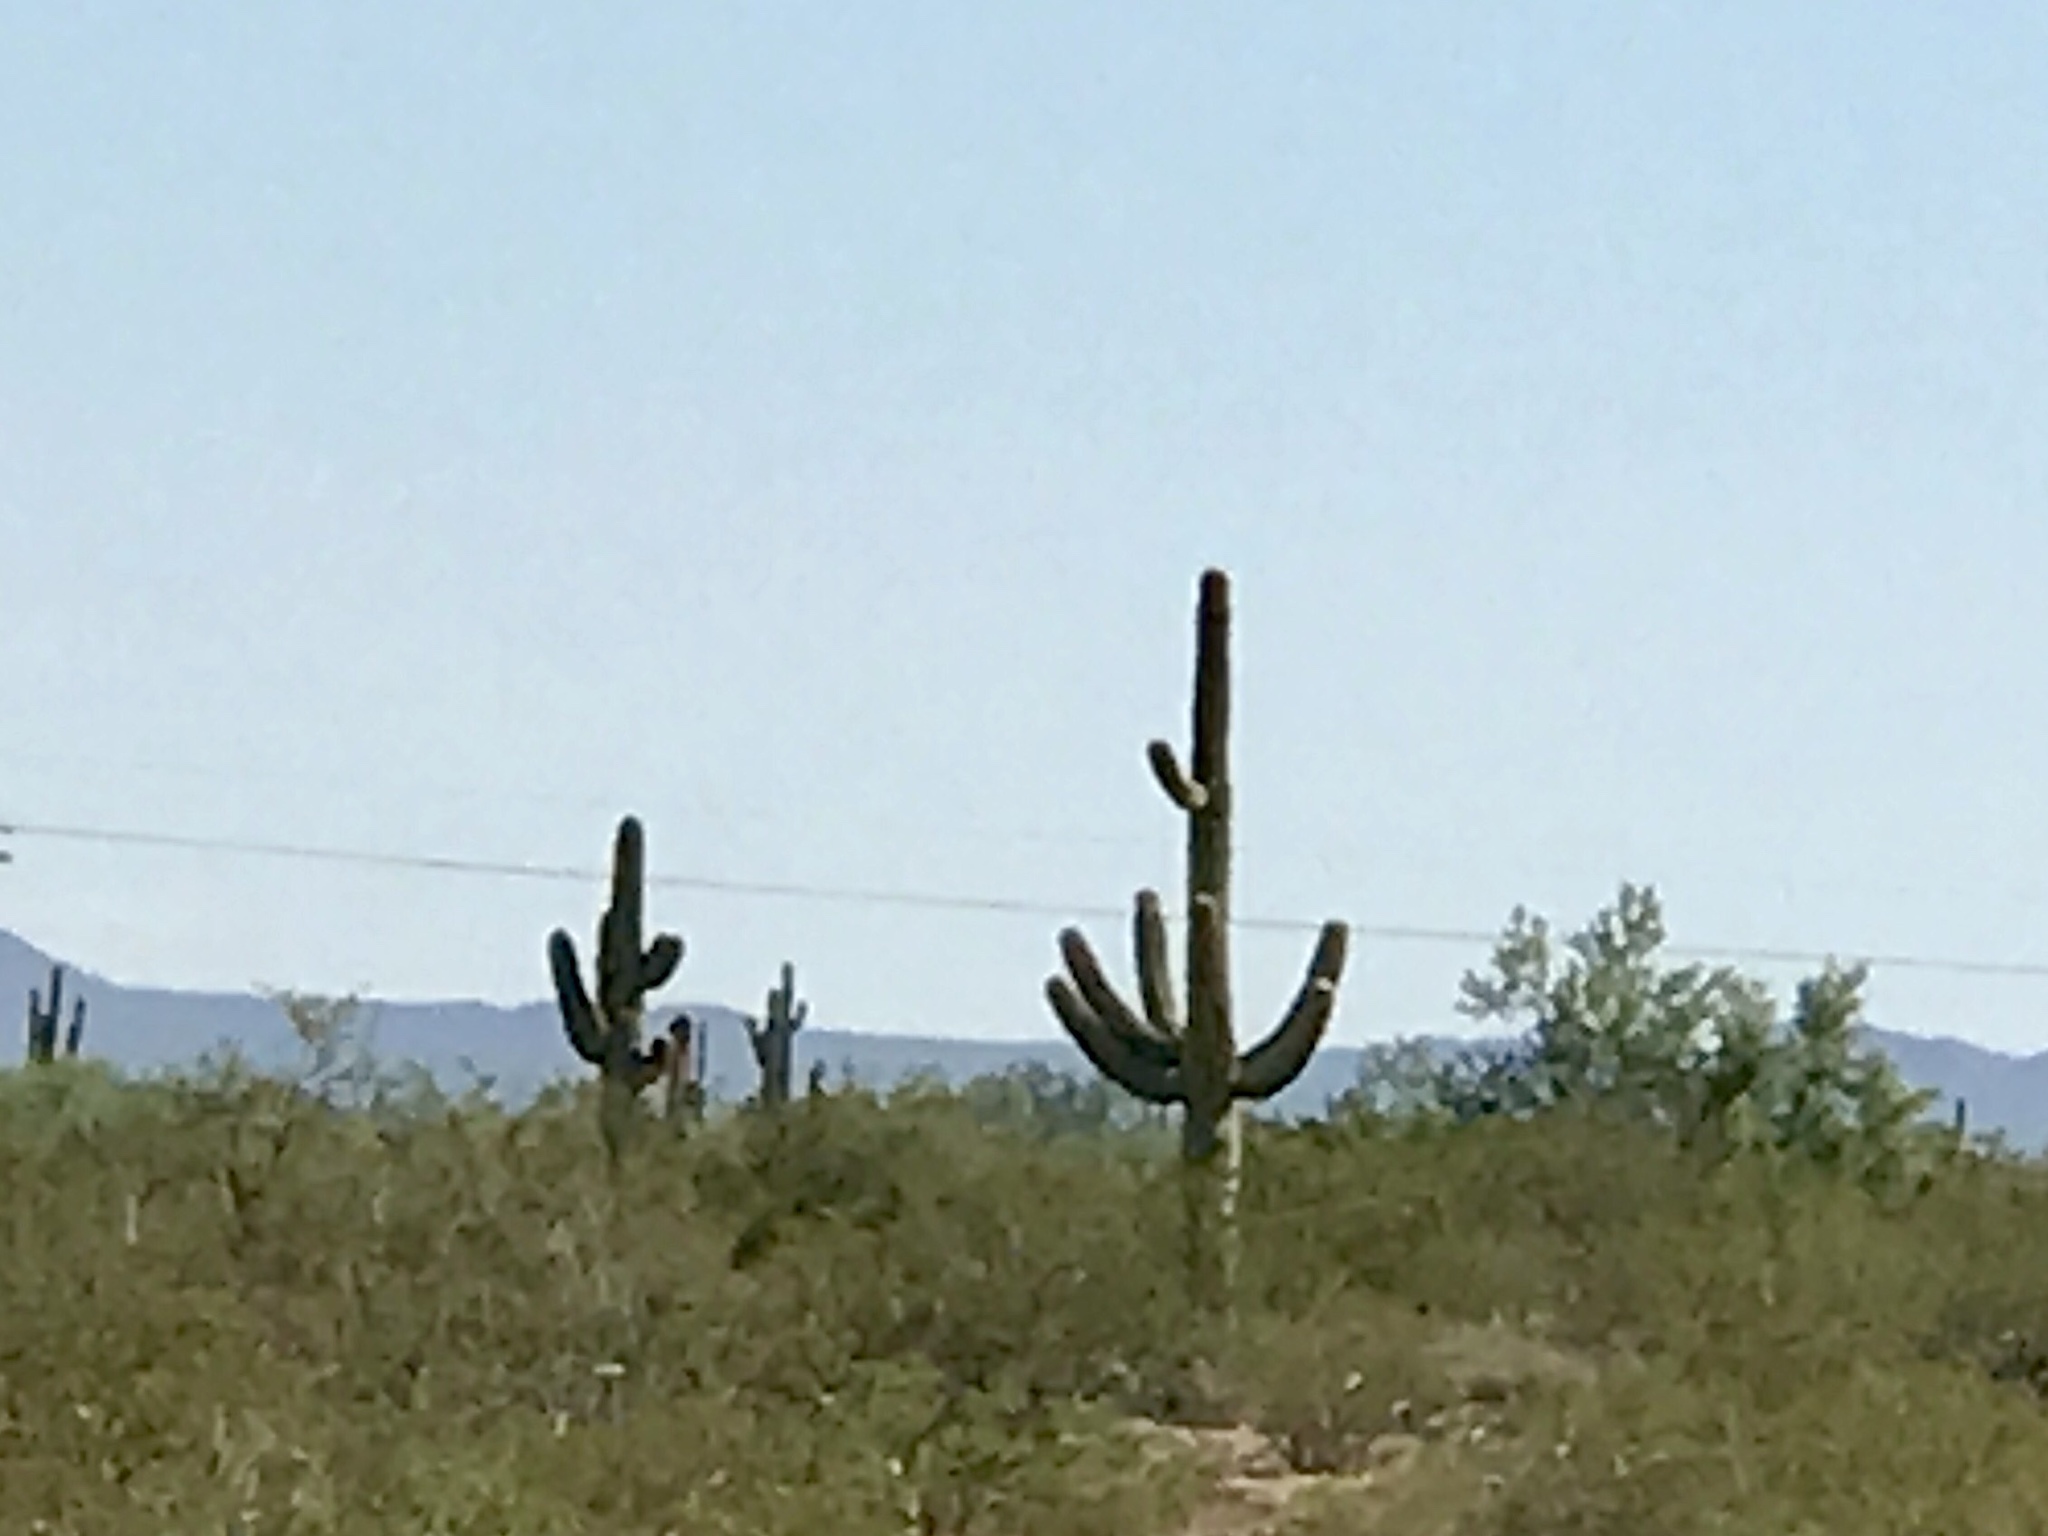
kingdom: Plantae
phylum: Tracheophyta
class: Magnoliopsida
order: Caryophyllales
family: Cactaceae
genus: Carnegiea
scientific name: Carnegiea gigantea
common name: Saguaro
